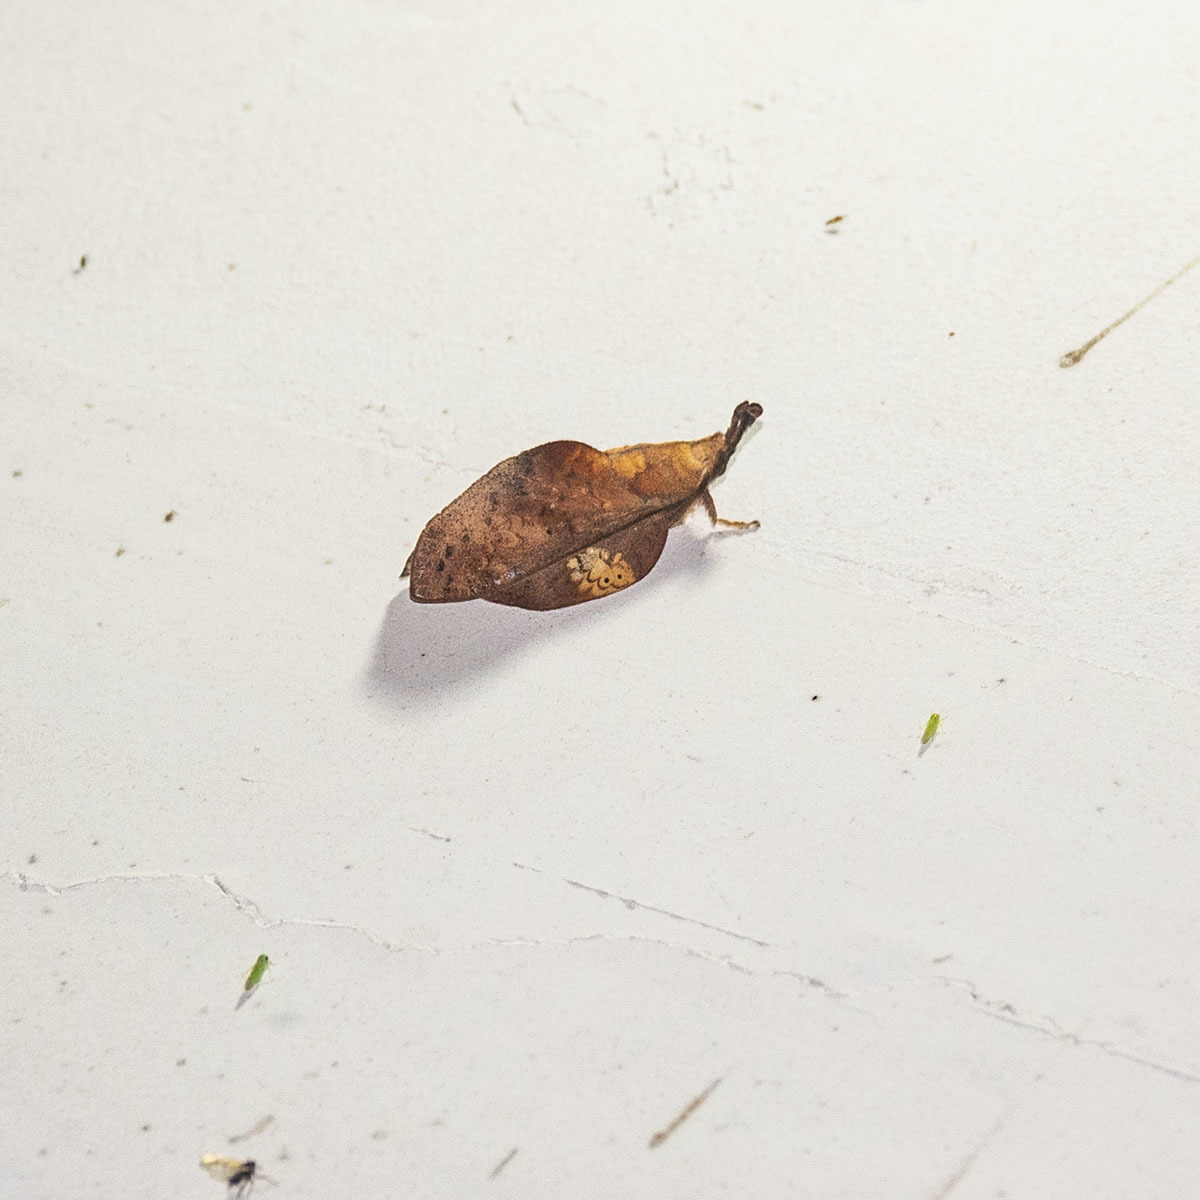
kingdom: Animalia
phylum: Arthropoda
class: Insecta
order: Lepidoptera
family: Lasiocampidae
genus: Estigena
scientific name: Estigena leopoldi
